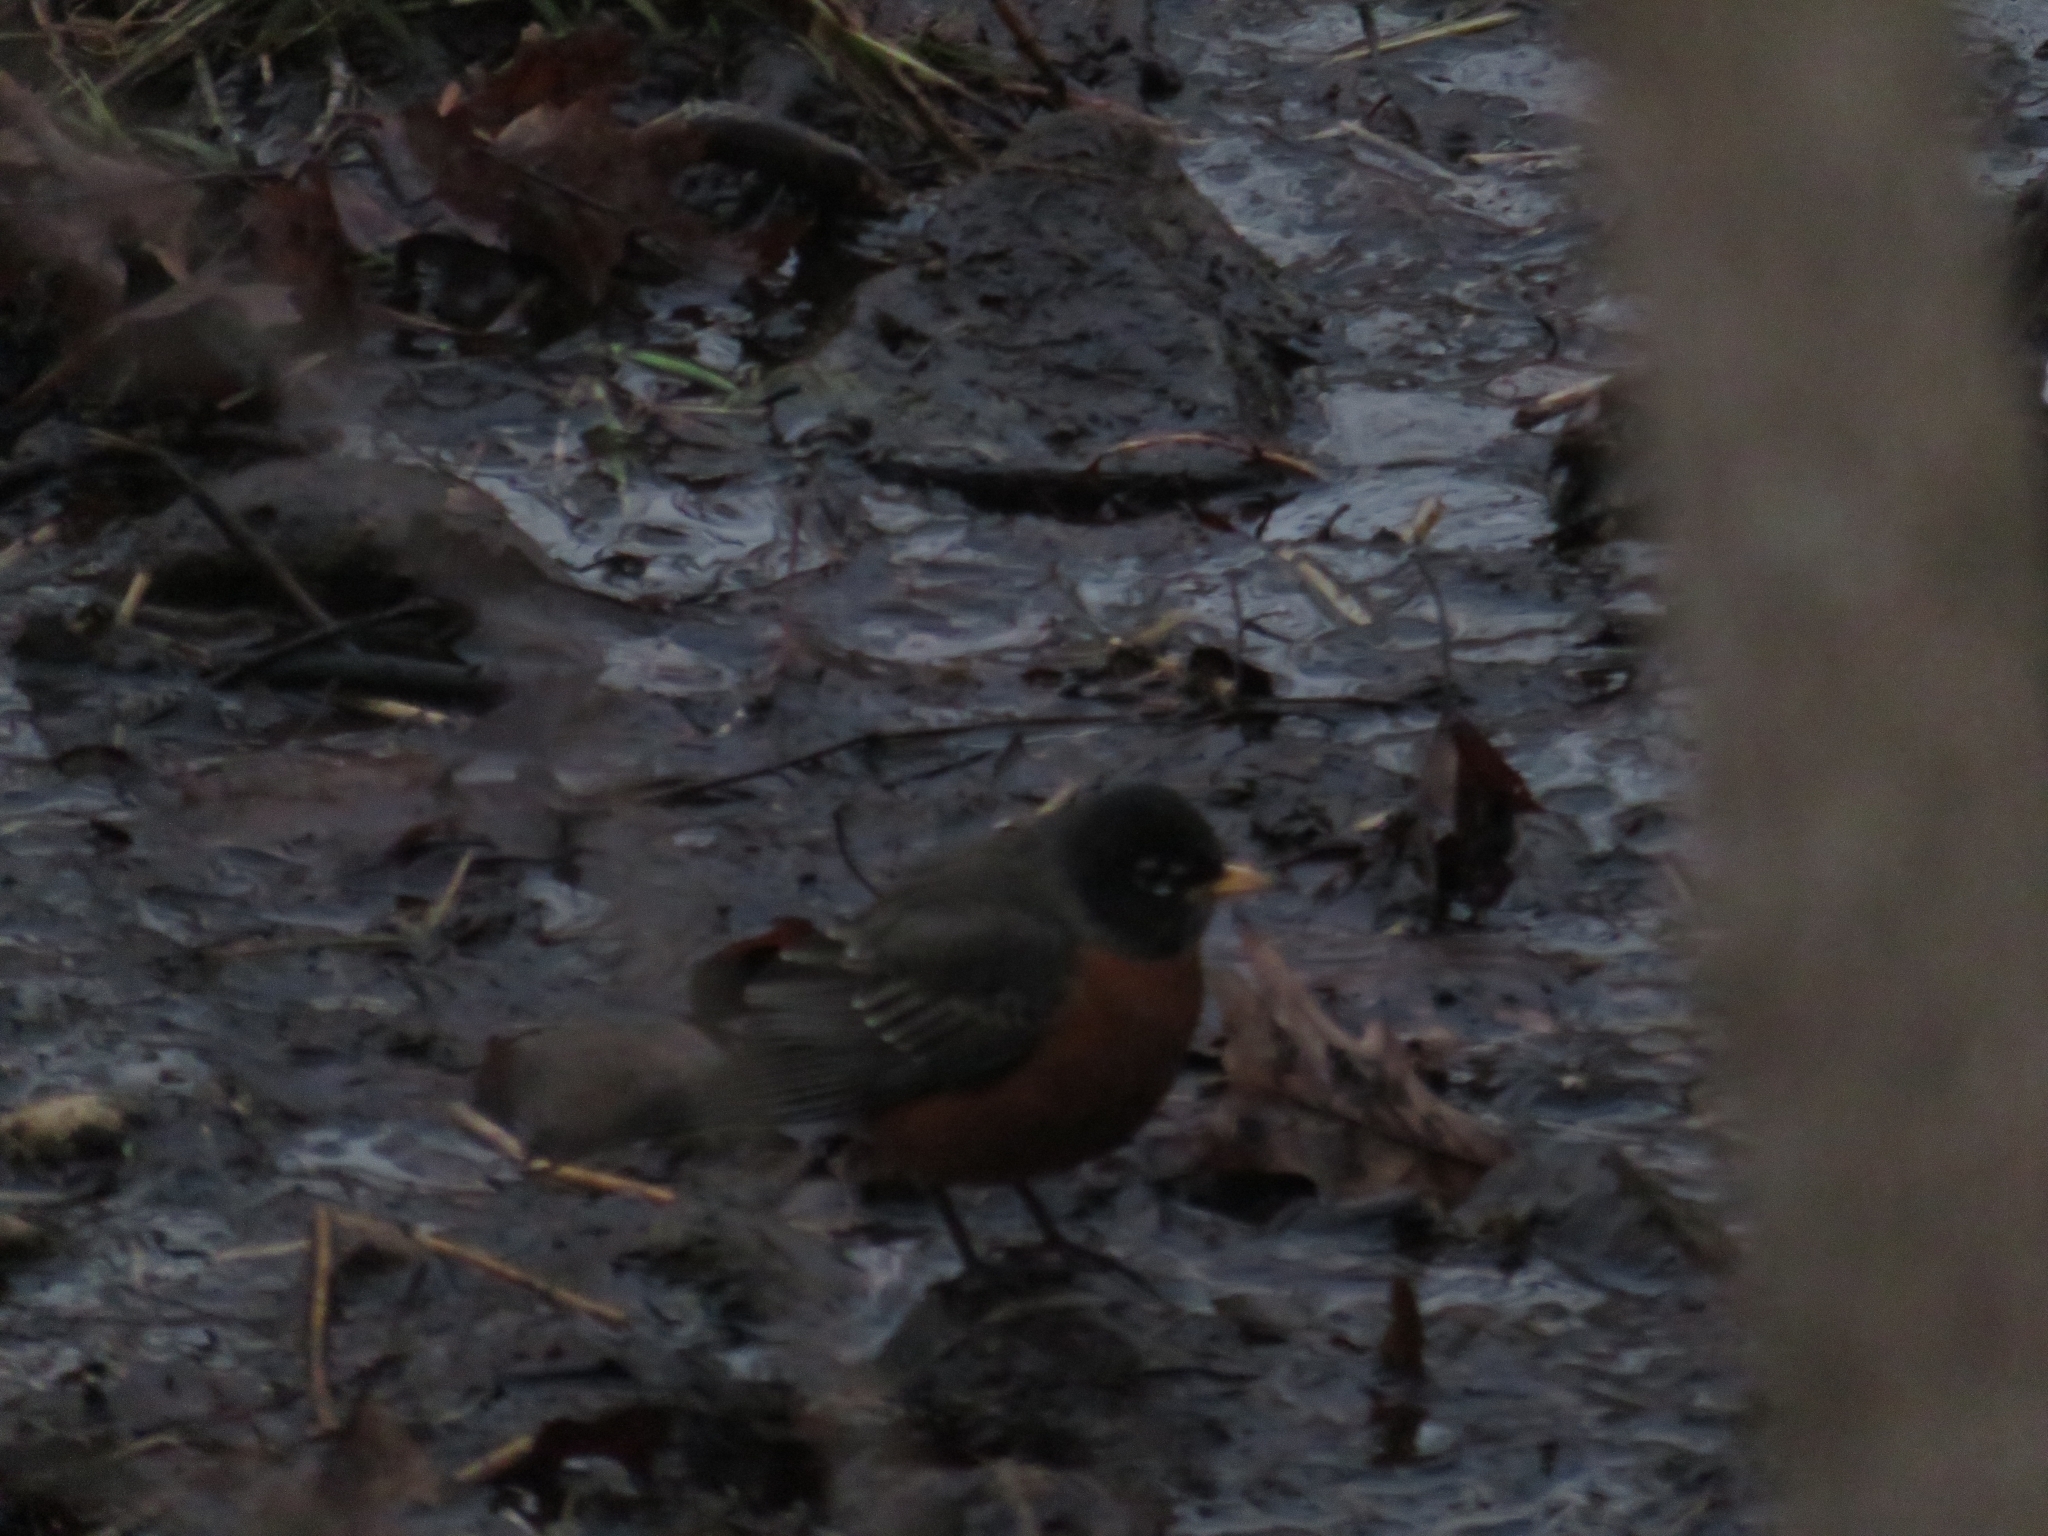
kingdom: Animalia
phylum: Chordata
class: Aves
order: Passeriformes
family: Turdidae
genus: Turdus
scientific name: Turdus migratorius
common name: American robin
